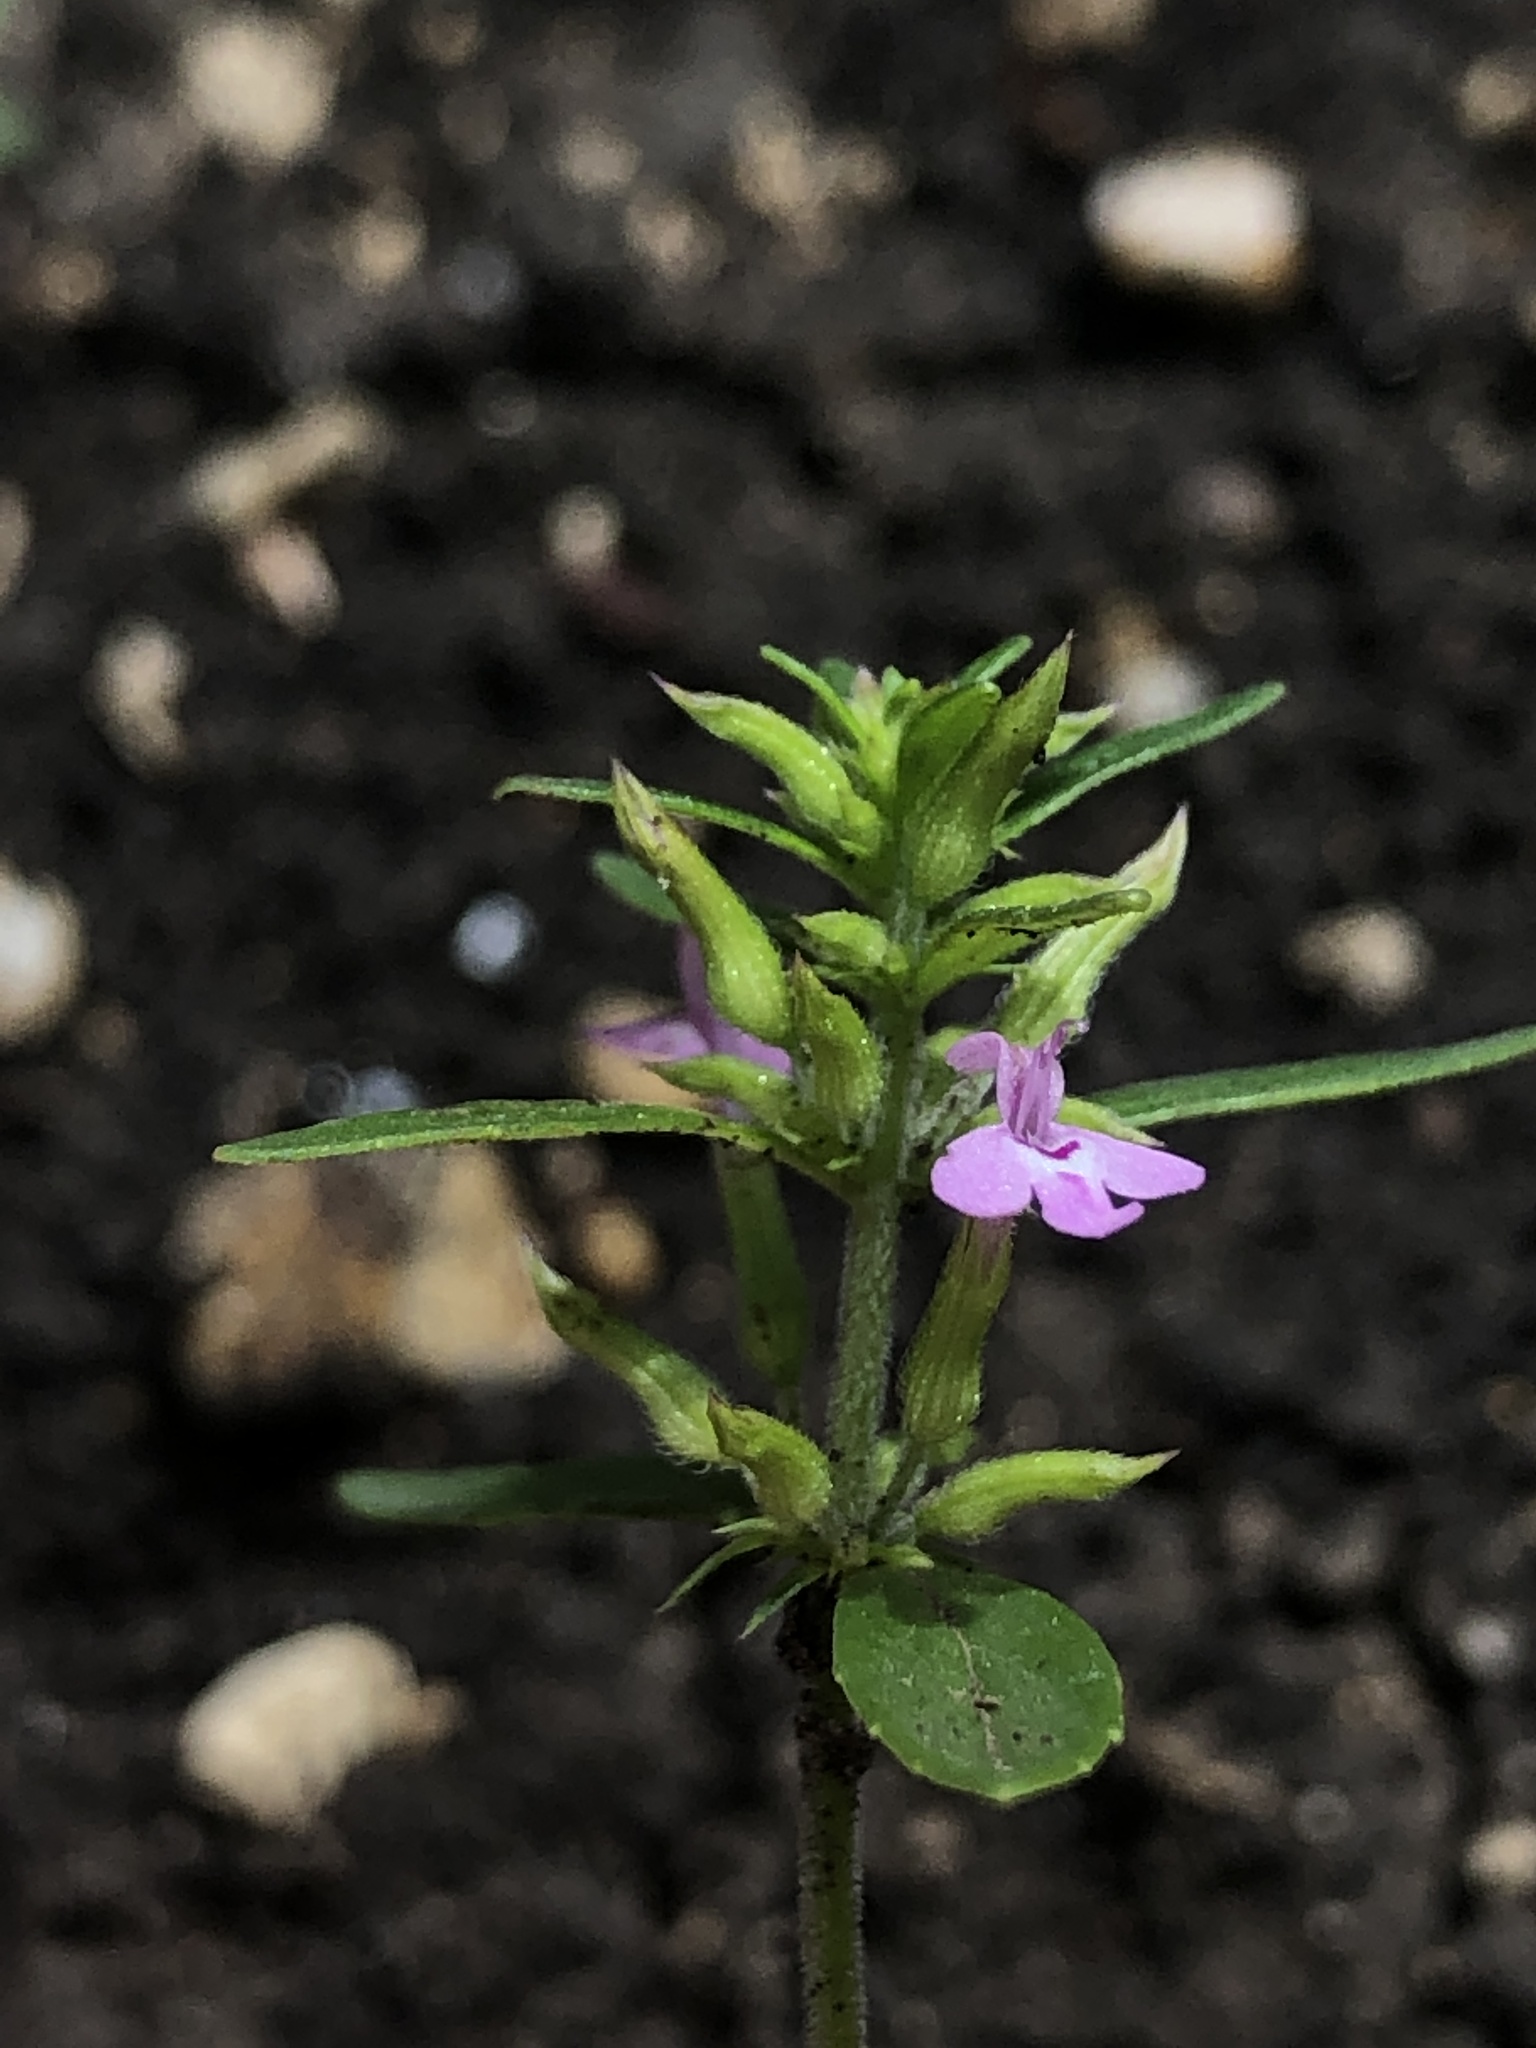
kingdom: Plantae
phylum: Tracheophyta
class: Magnoliopsida
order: Lamiales
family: Lamiaceae
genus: Hedeoma
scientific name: Hedeoma acinoides
